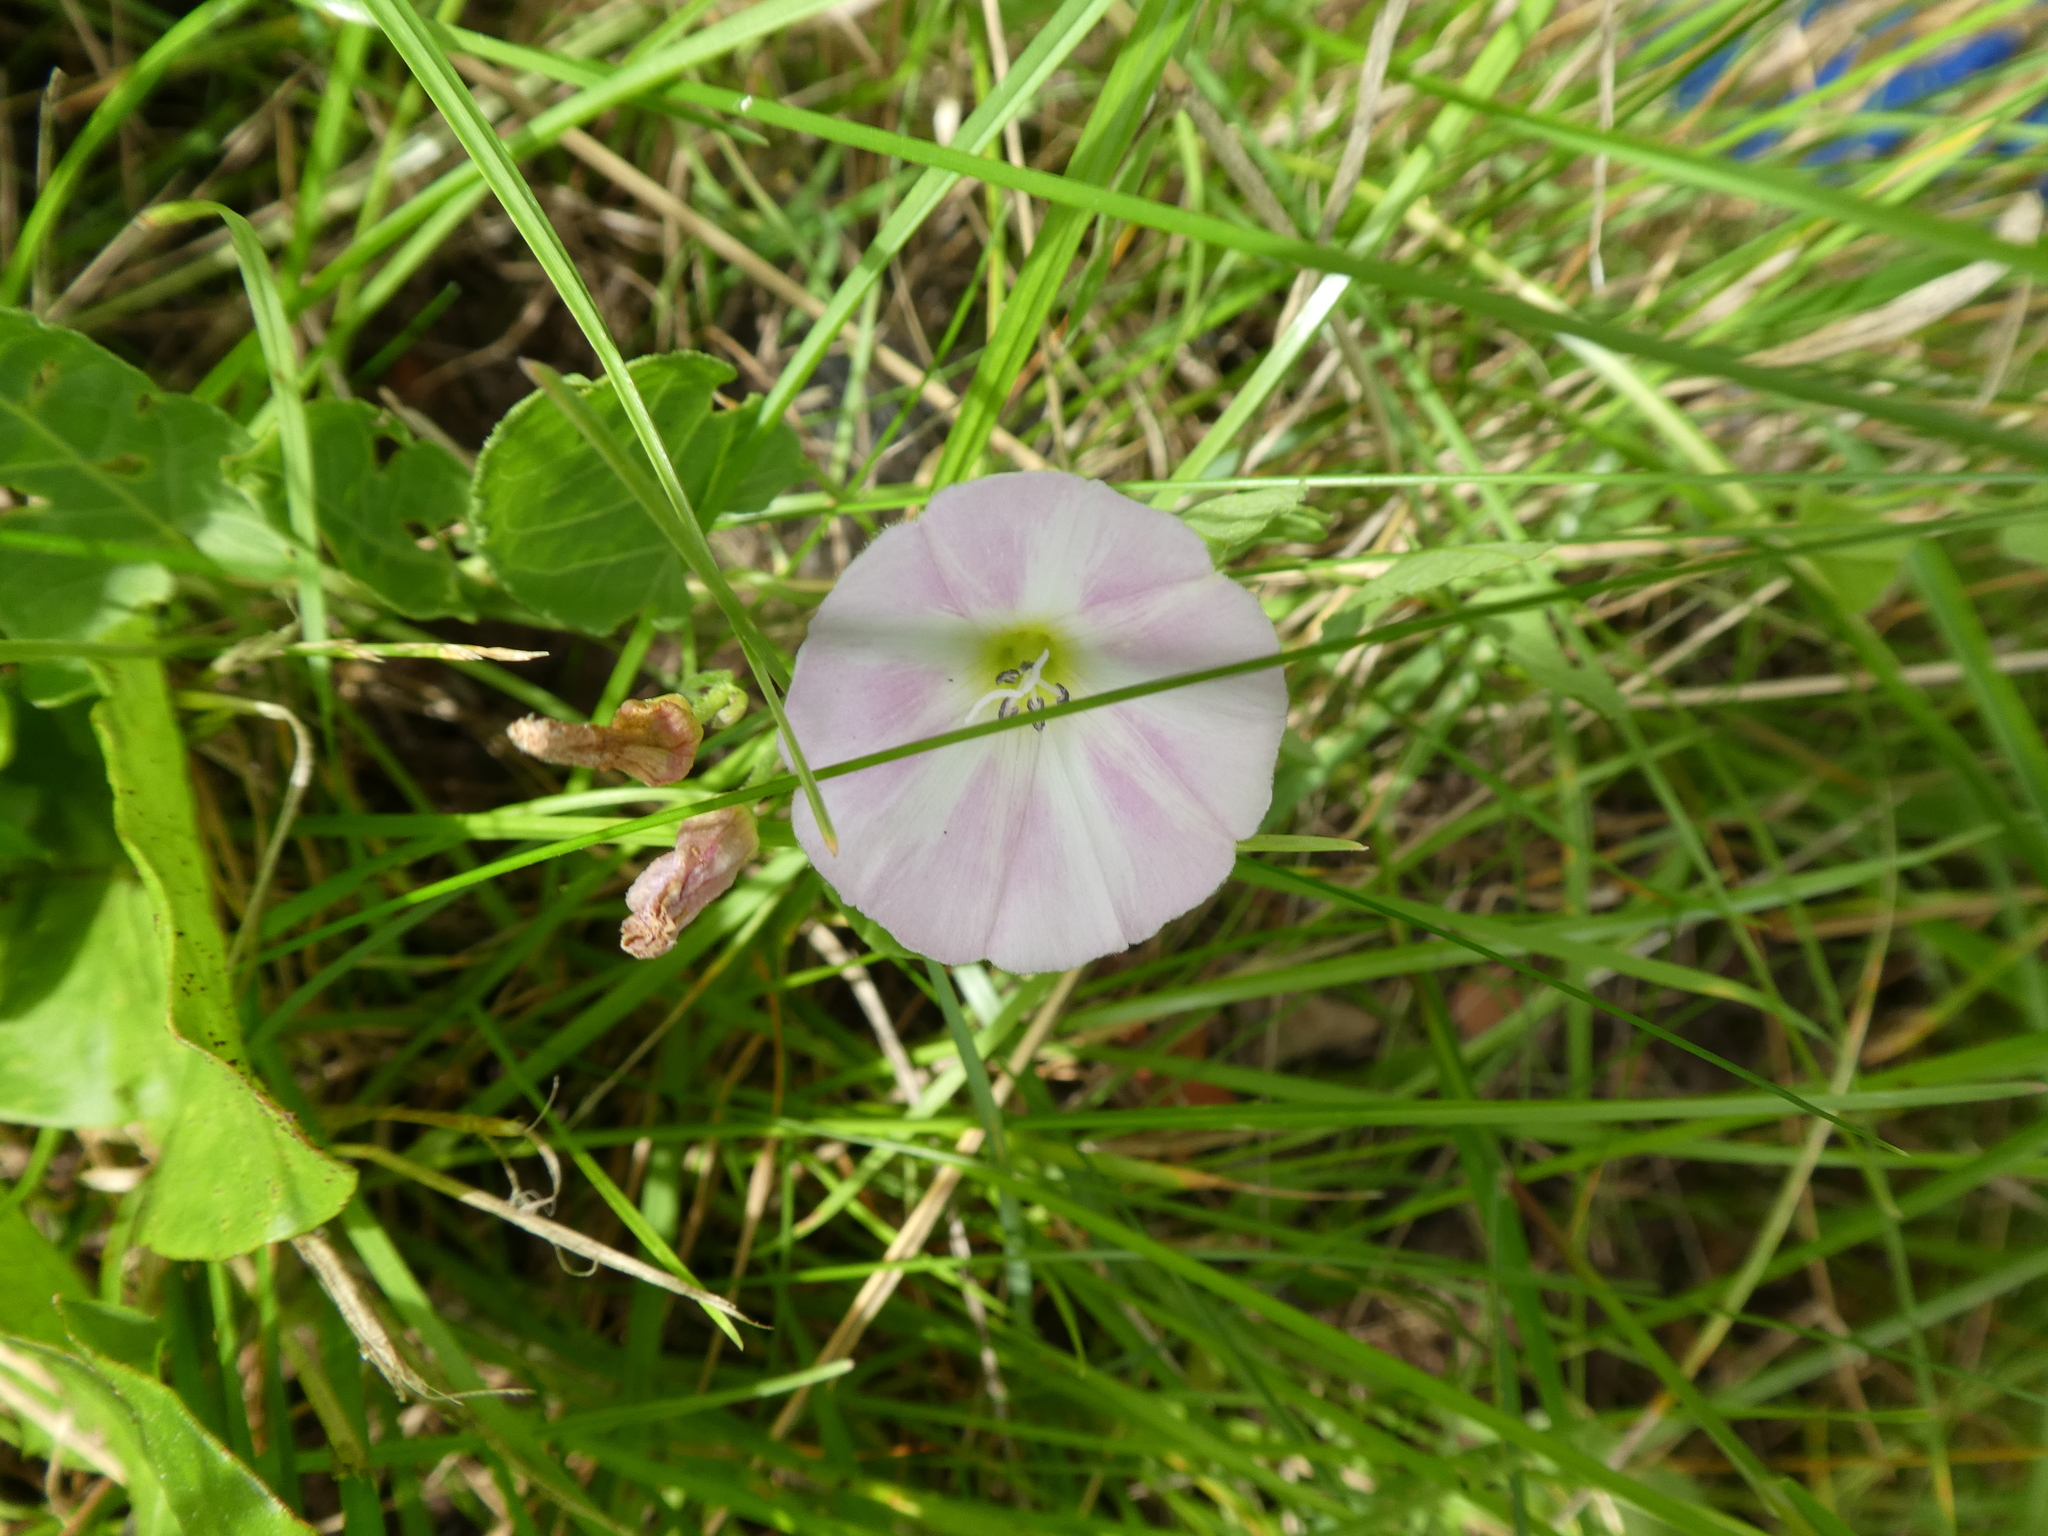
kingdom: Plantae
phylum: Tracheophyta
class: Magnoliopsida
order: Solanales
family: Convolvulaceae
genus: Convolvulus
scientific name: Convolvulus arvensis
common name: Field bindweed
